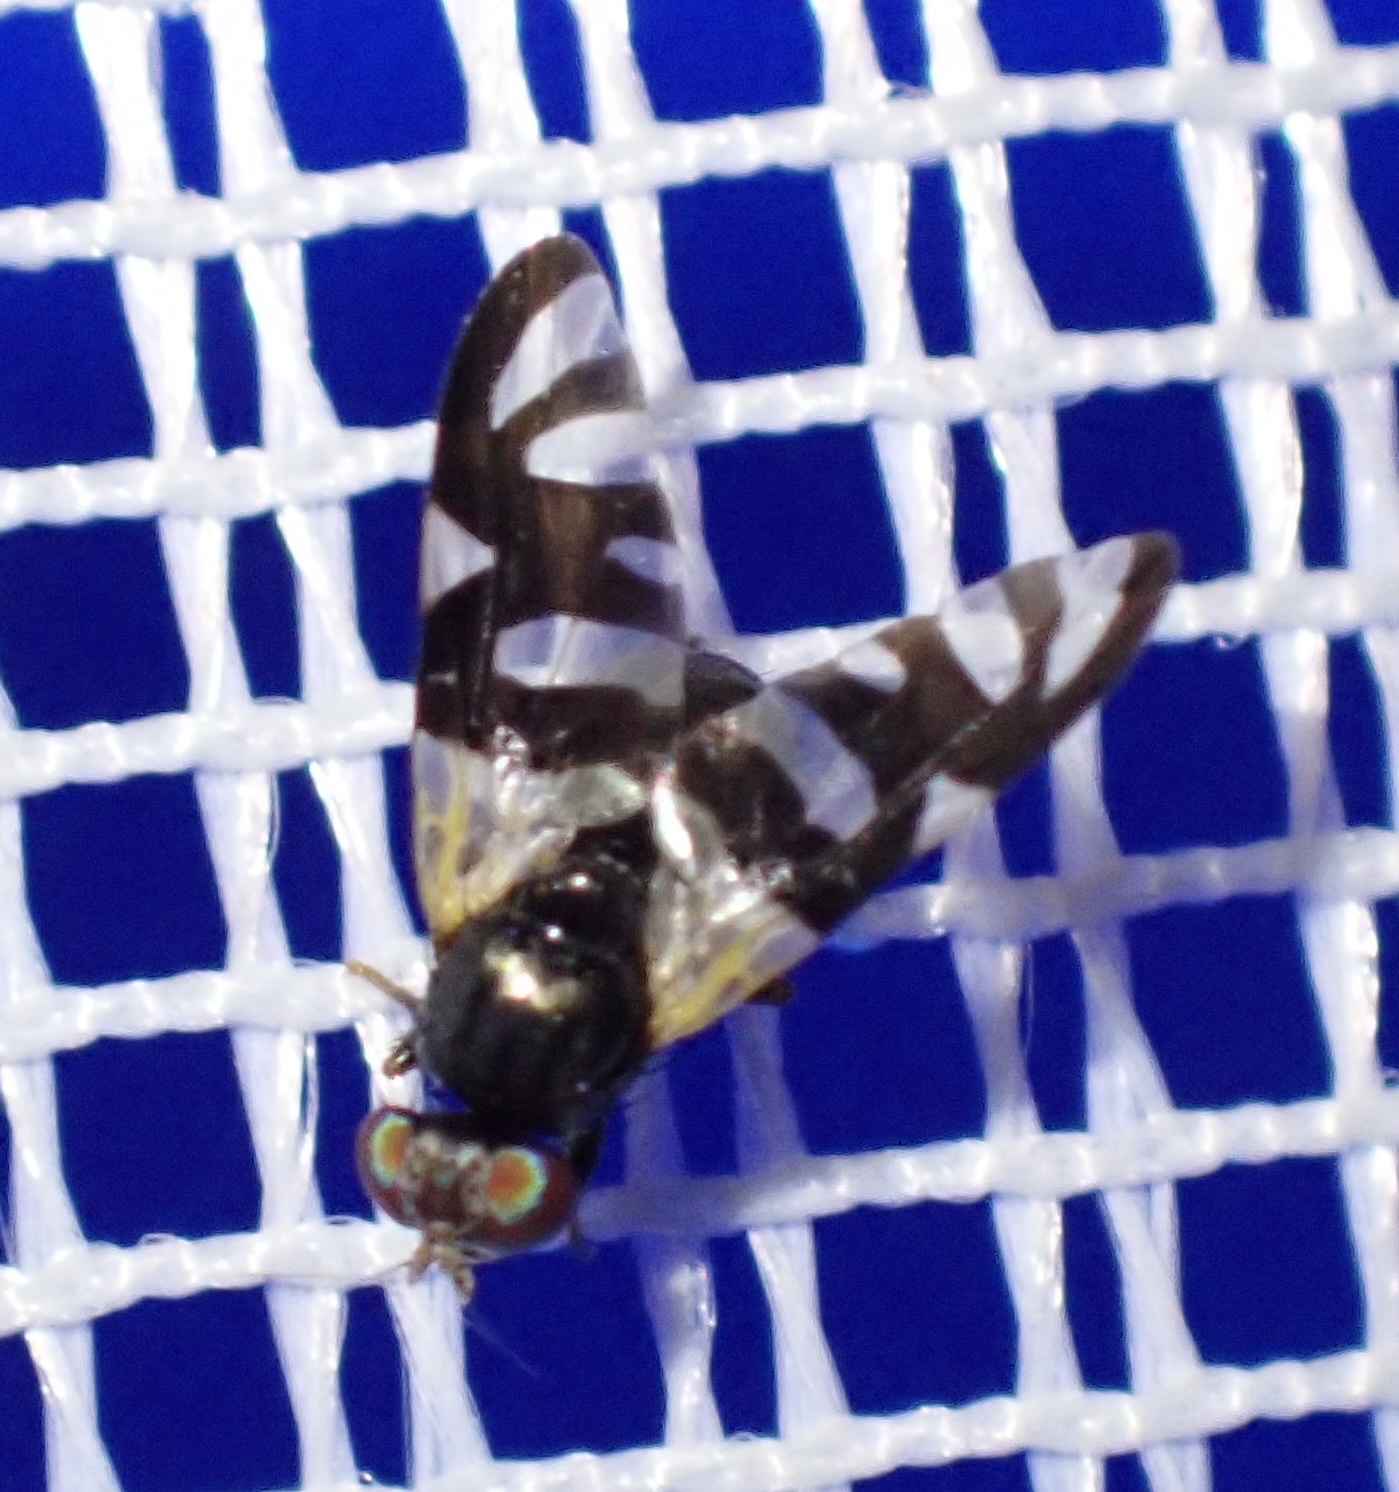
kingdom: Animalia
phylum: Arthropoda
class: Insecta
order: Diptera
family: Tephritidae
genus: Sphaeniscus
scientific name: Sphaeniscus sexmaculatus
